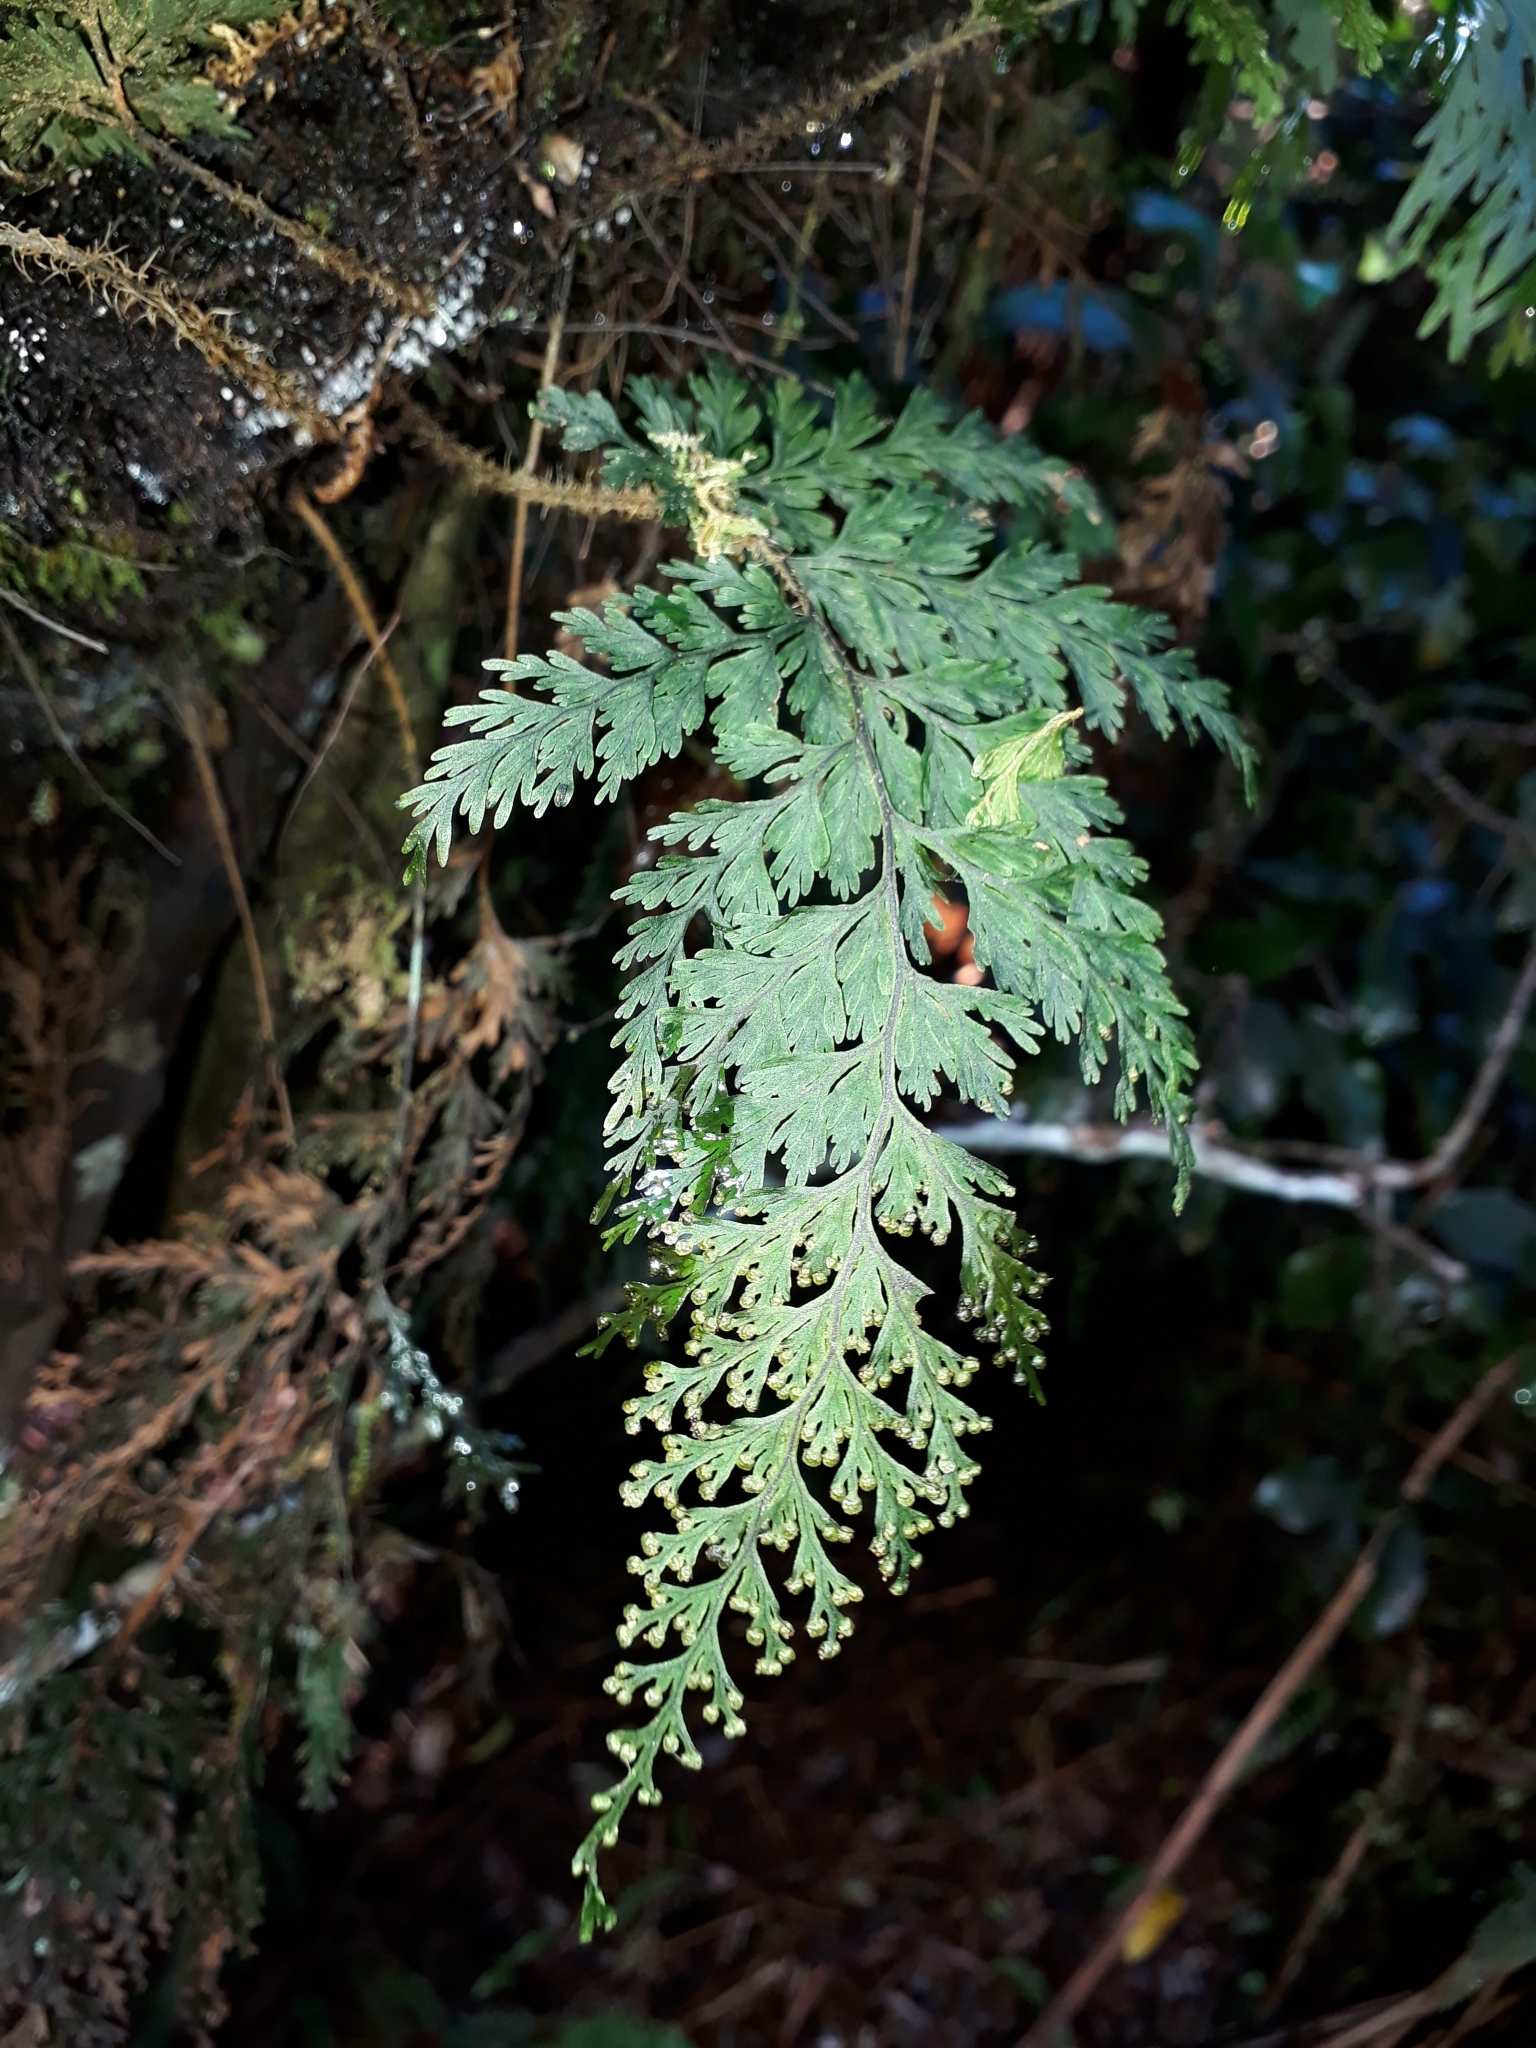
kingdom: Plantae
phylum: Tracheophyta
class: Polypodiopsida
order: Hymenophyllales
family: Hymenophyllaceae
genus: Hymenophyllum
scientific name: Hymenophyllum scabrum
